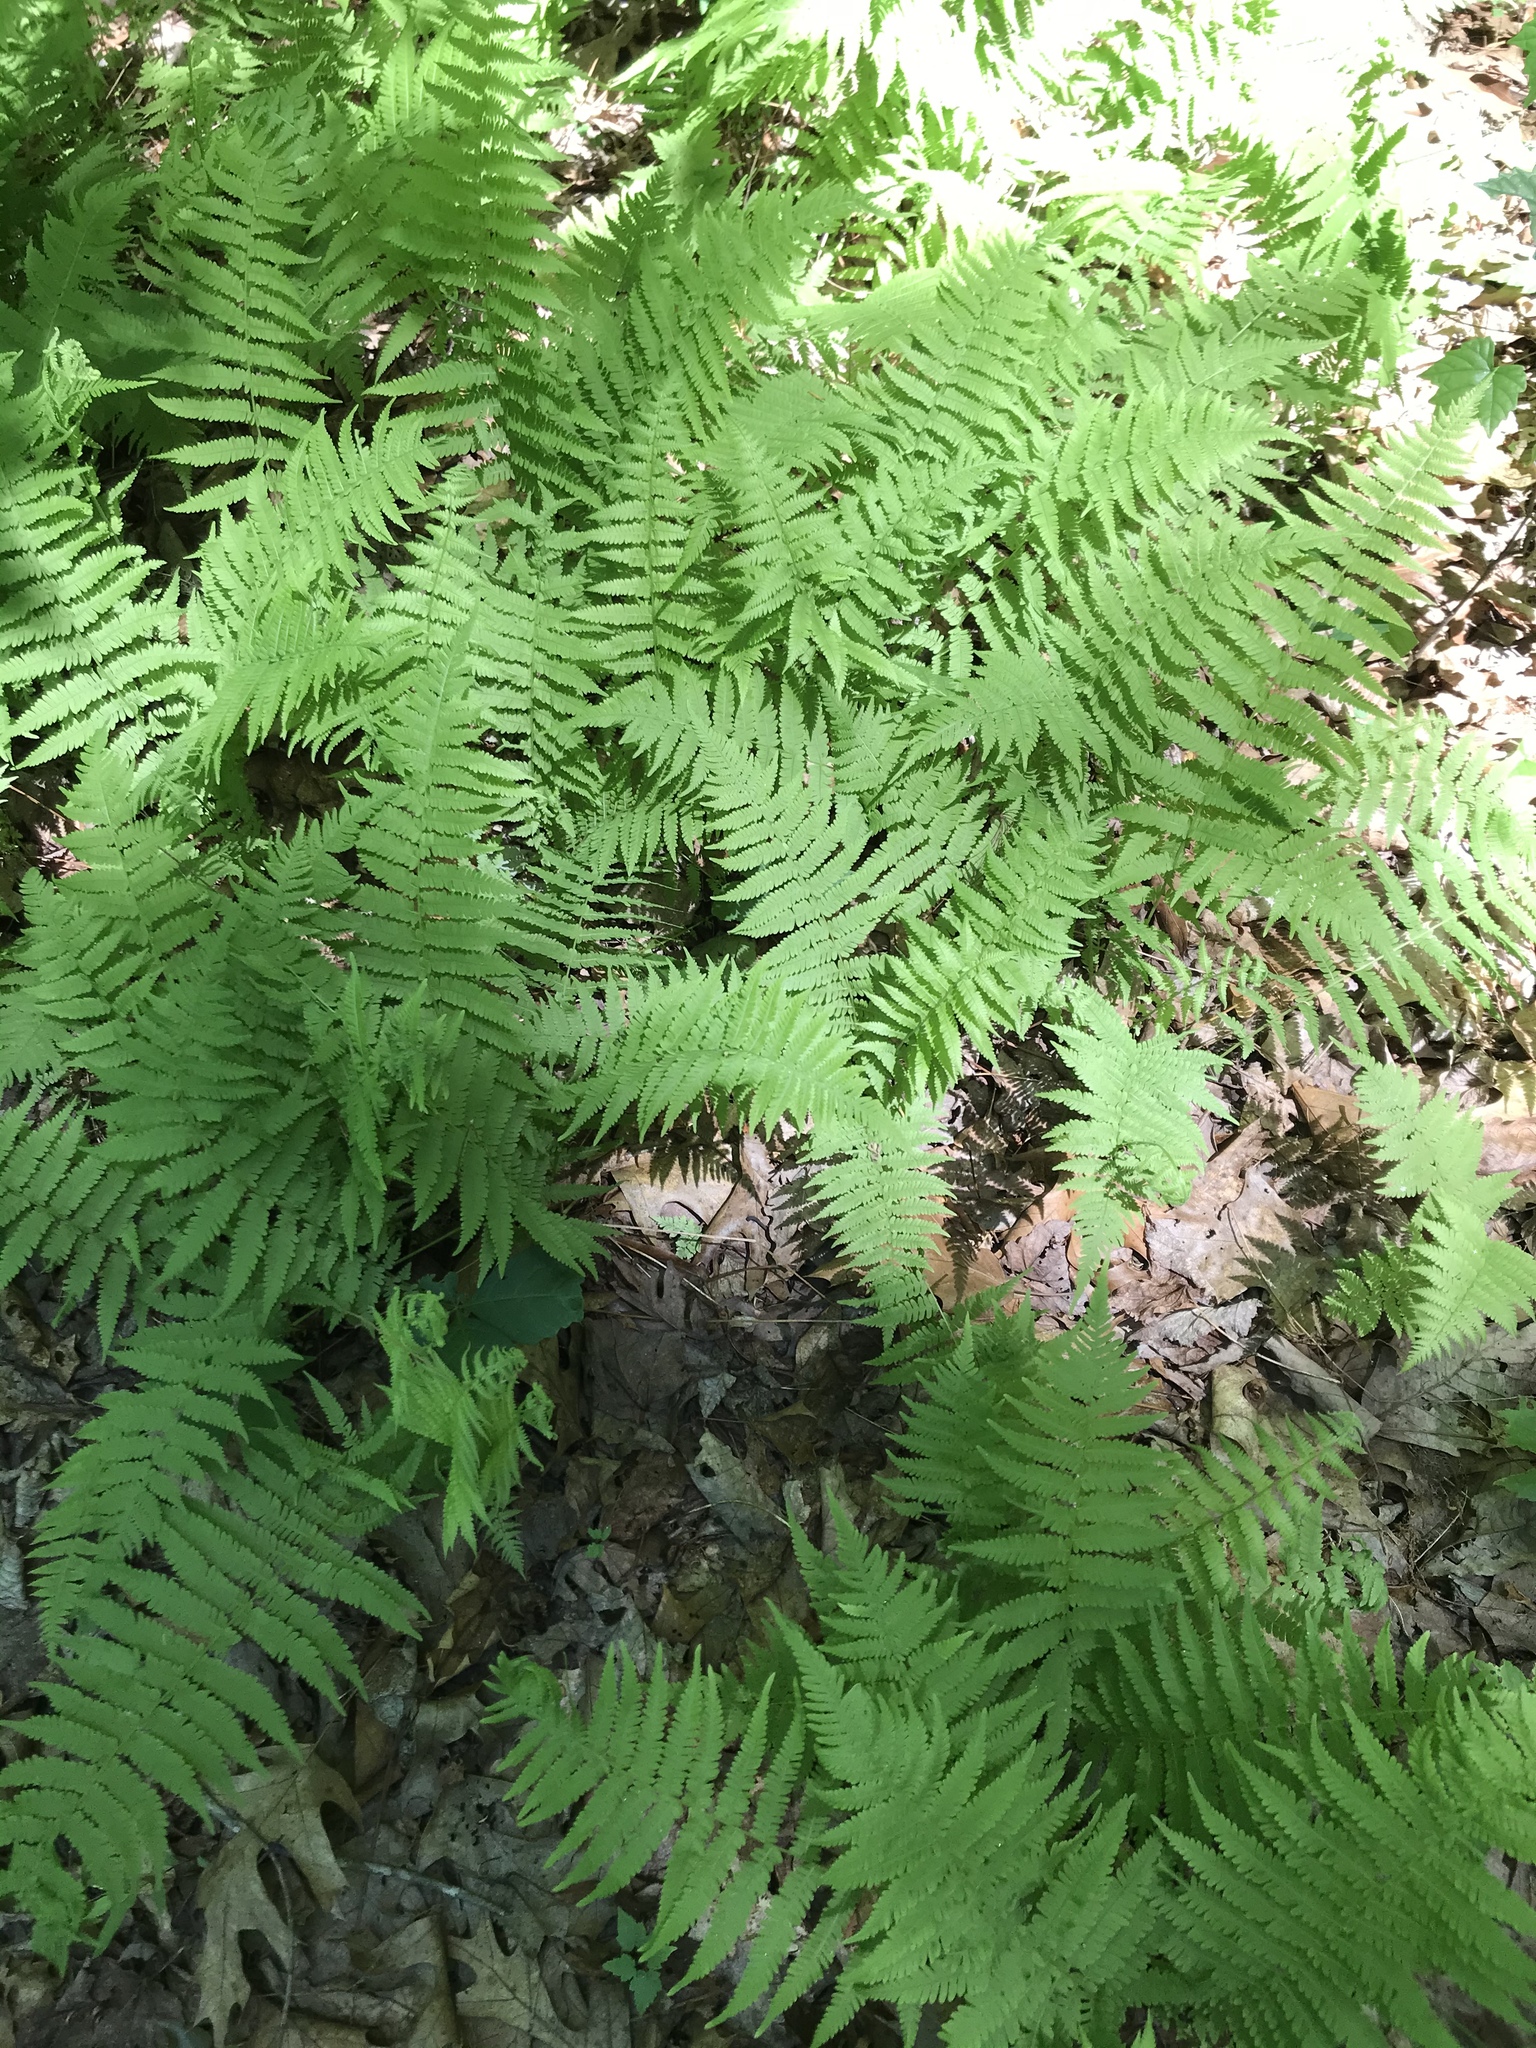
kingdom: Plantae
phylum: Tracheophyta
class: Polypodiopsida
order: Polypodiales
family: Thelypteridaceae
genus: Amauropelta
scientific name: Amauropelta noveboracensis
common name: New york fern
